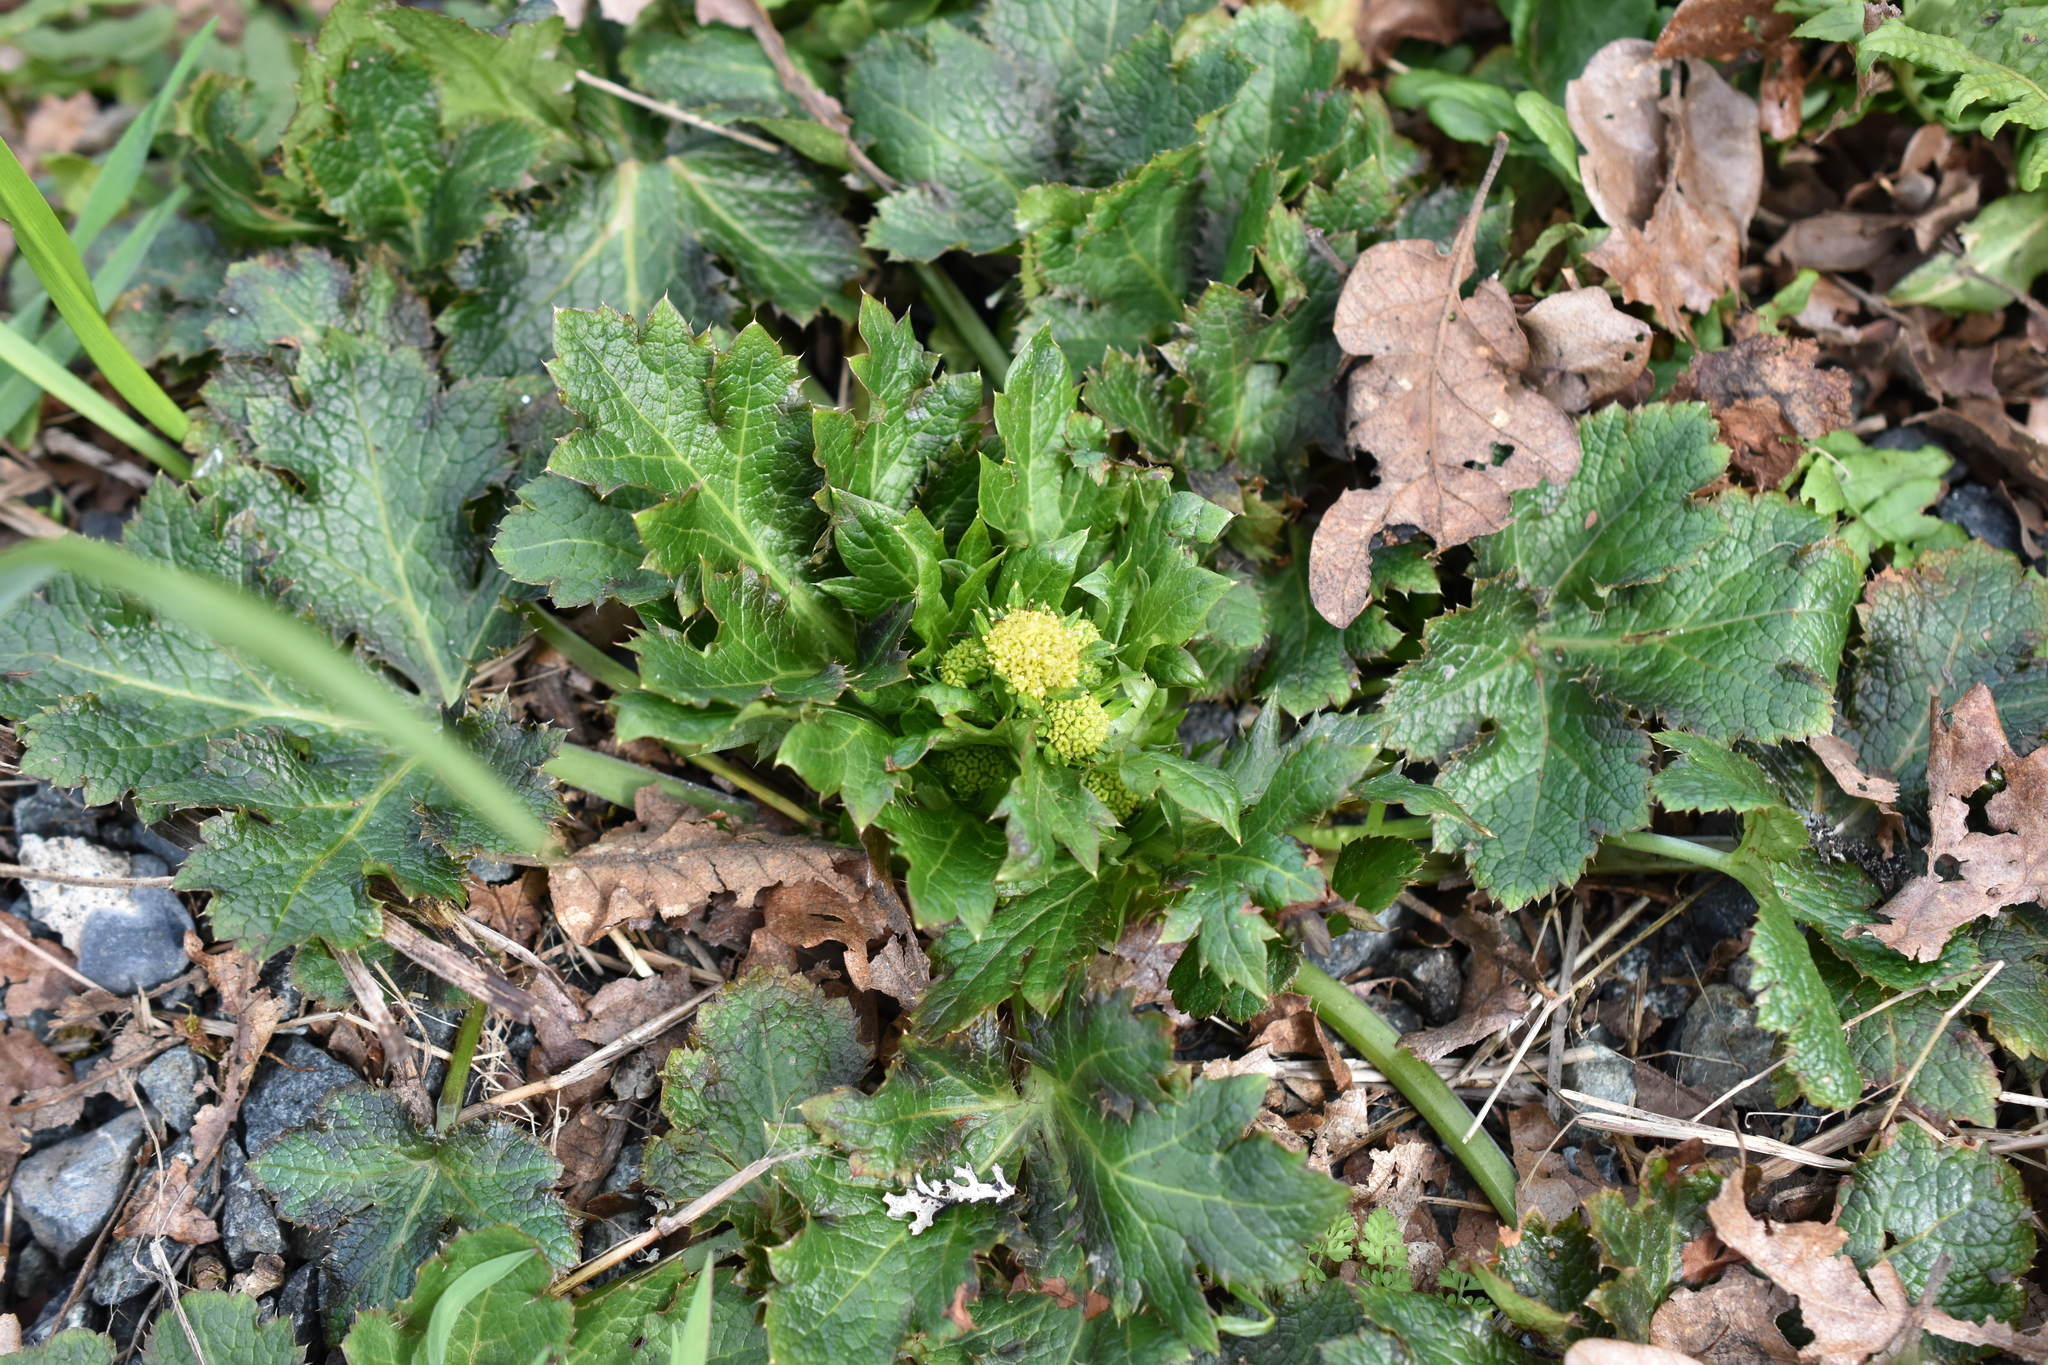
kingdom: Plantae
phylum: Tracheophyta
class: Magnoliopsida
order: Apiales
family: Apiaceae
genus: Sanicula
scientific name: Sanicula crassicaulis
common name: Western snakeroot
